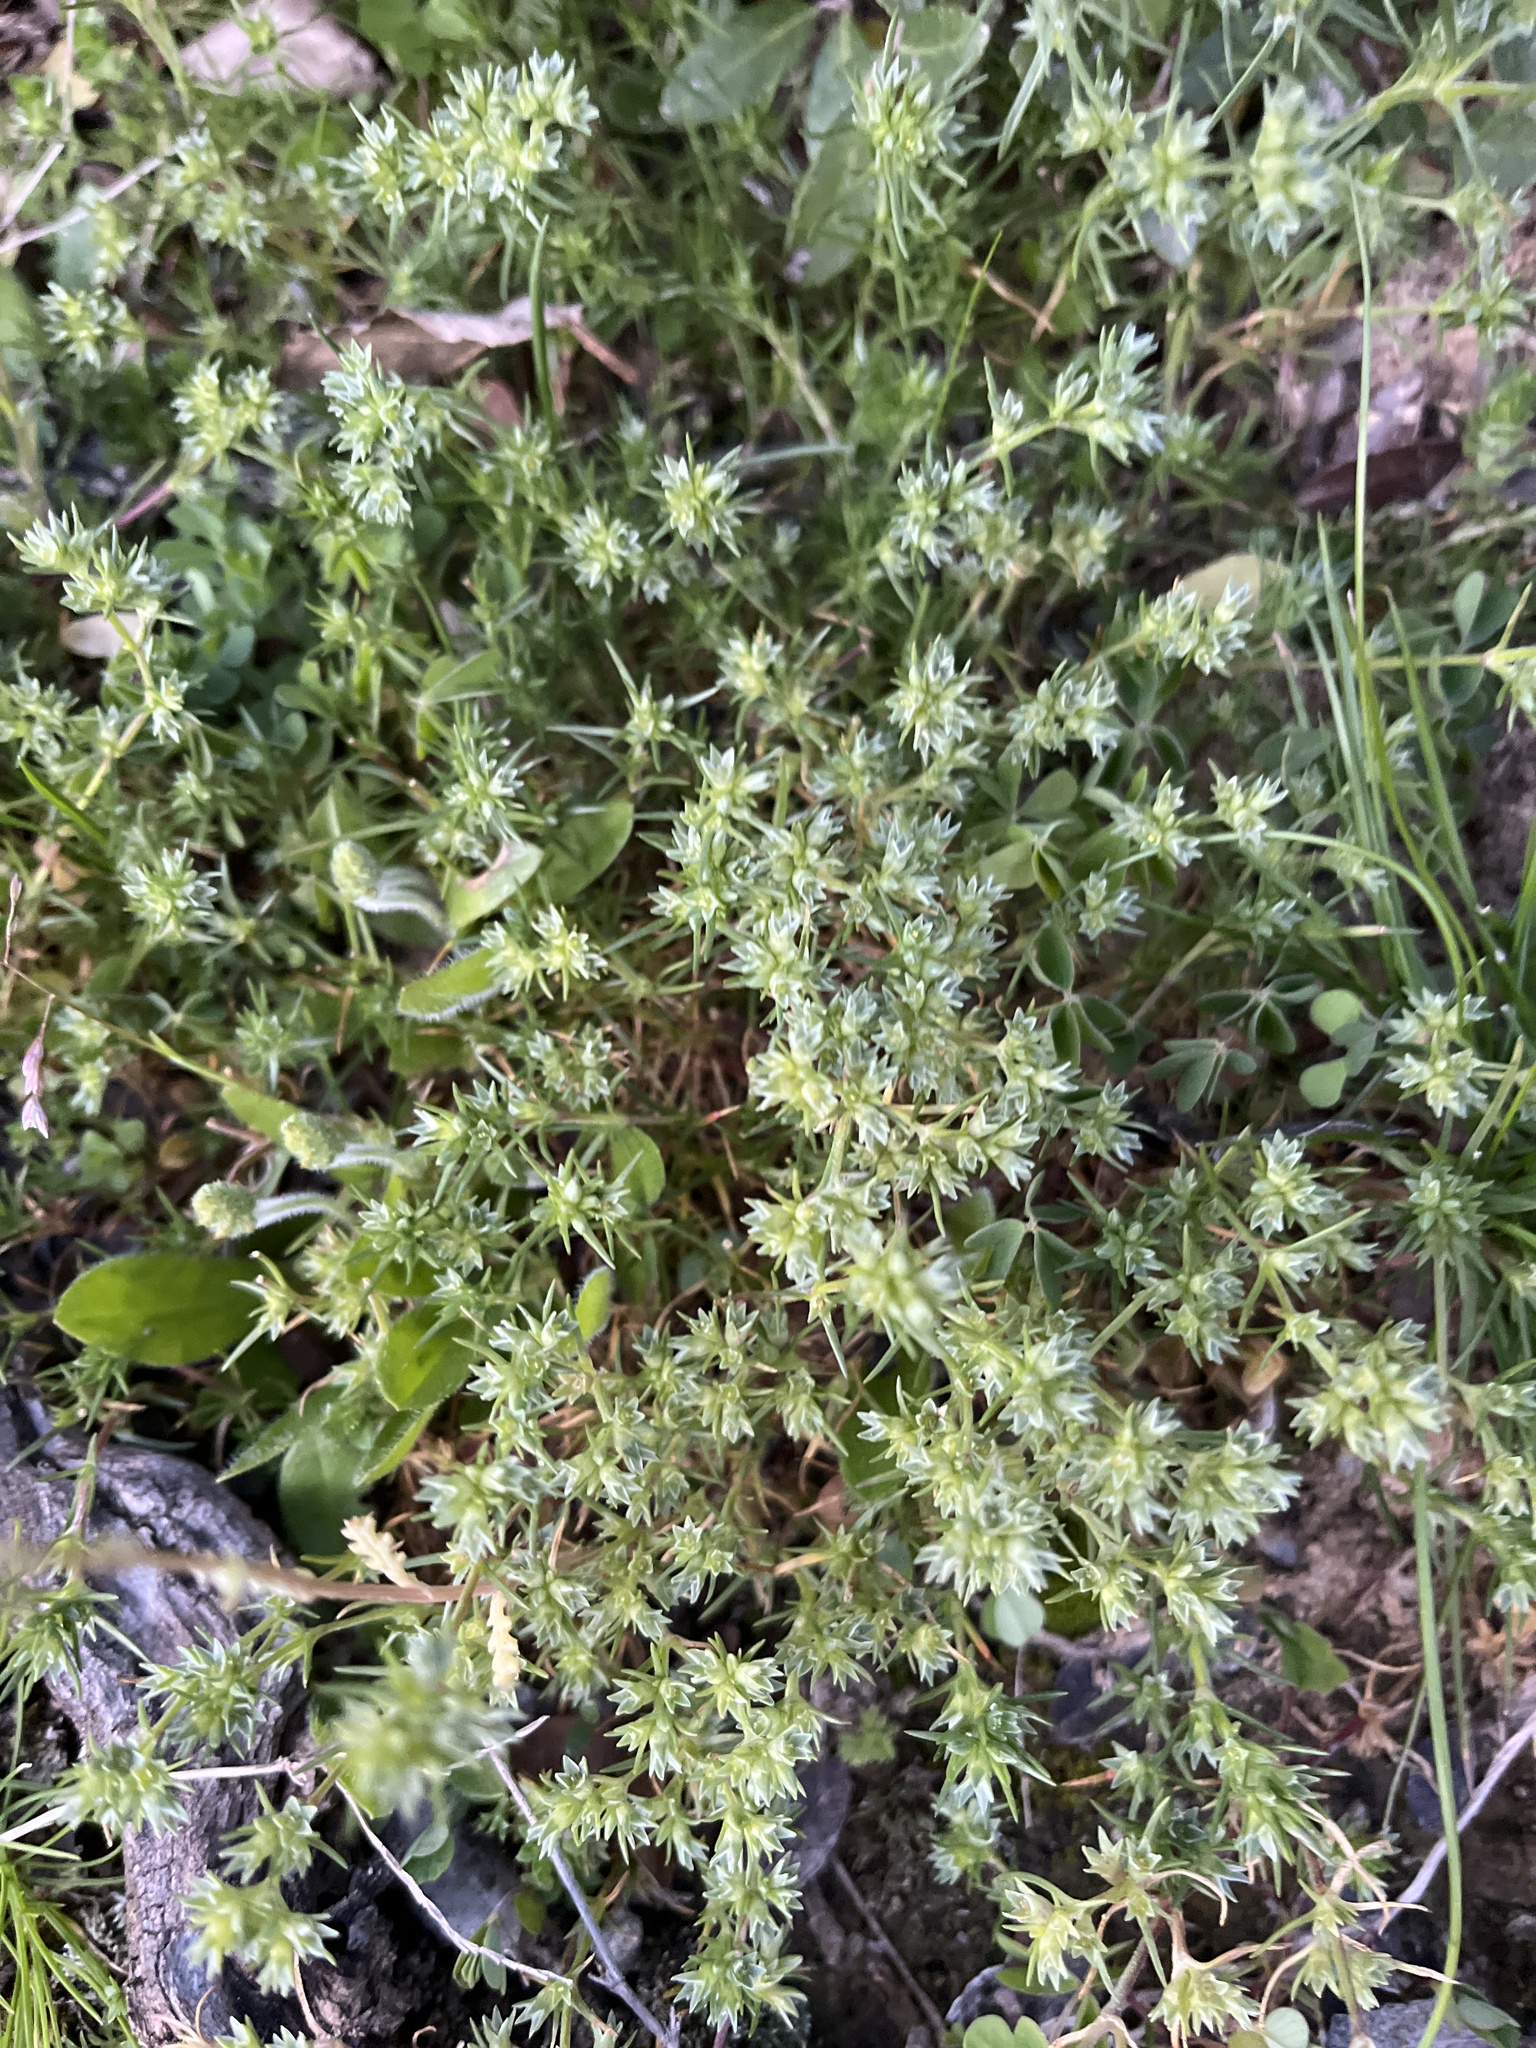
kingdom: Plantae
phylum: Tracheophyta
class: Magnoliopsida
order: Caryophyllales
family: Caryophyllaceae
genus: Scleranthus
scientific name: Scleranthus annuus
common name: Annual knawel
